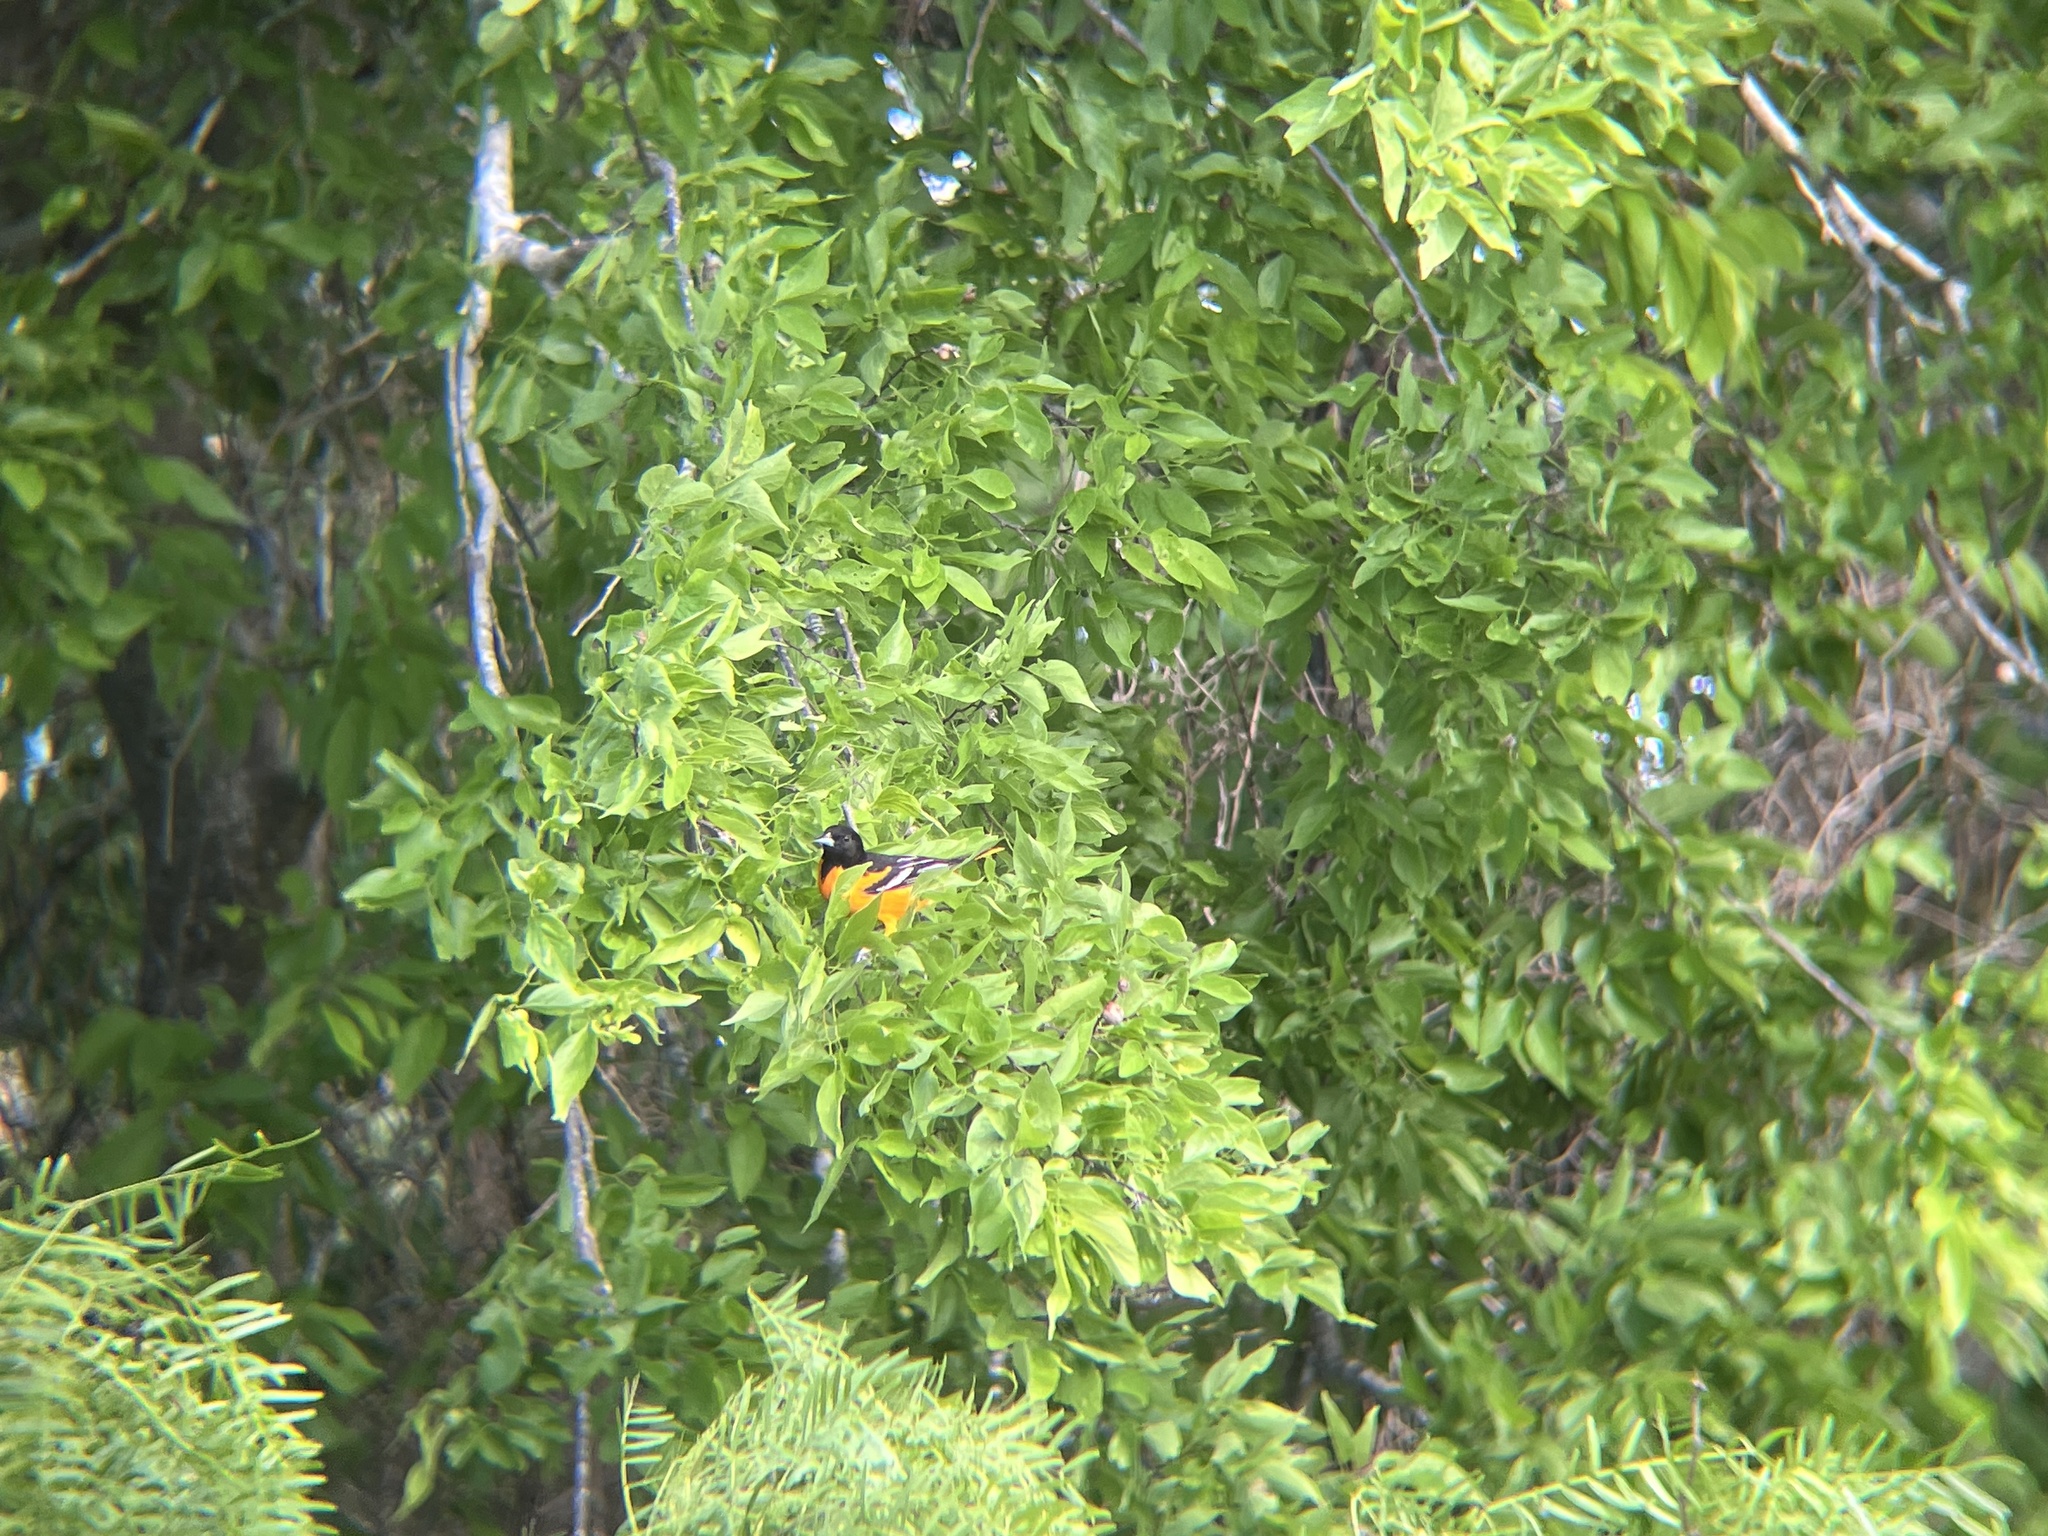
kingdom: Animalia
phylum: Chordata
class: Aves
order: Passeriformes
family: Icteridae
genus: Icterus
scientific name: Icterus galbula
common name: Baltimore oriole
